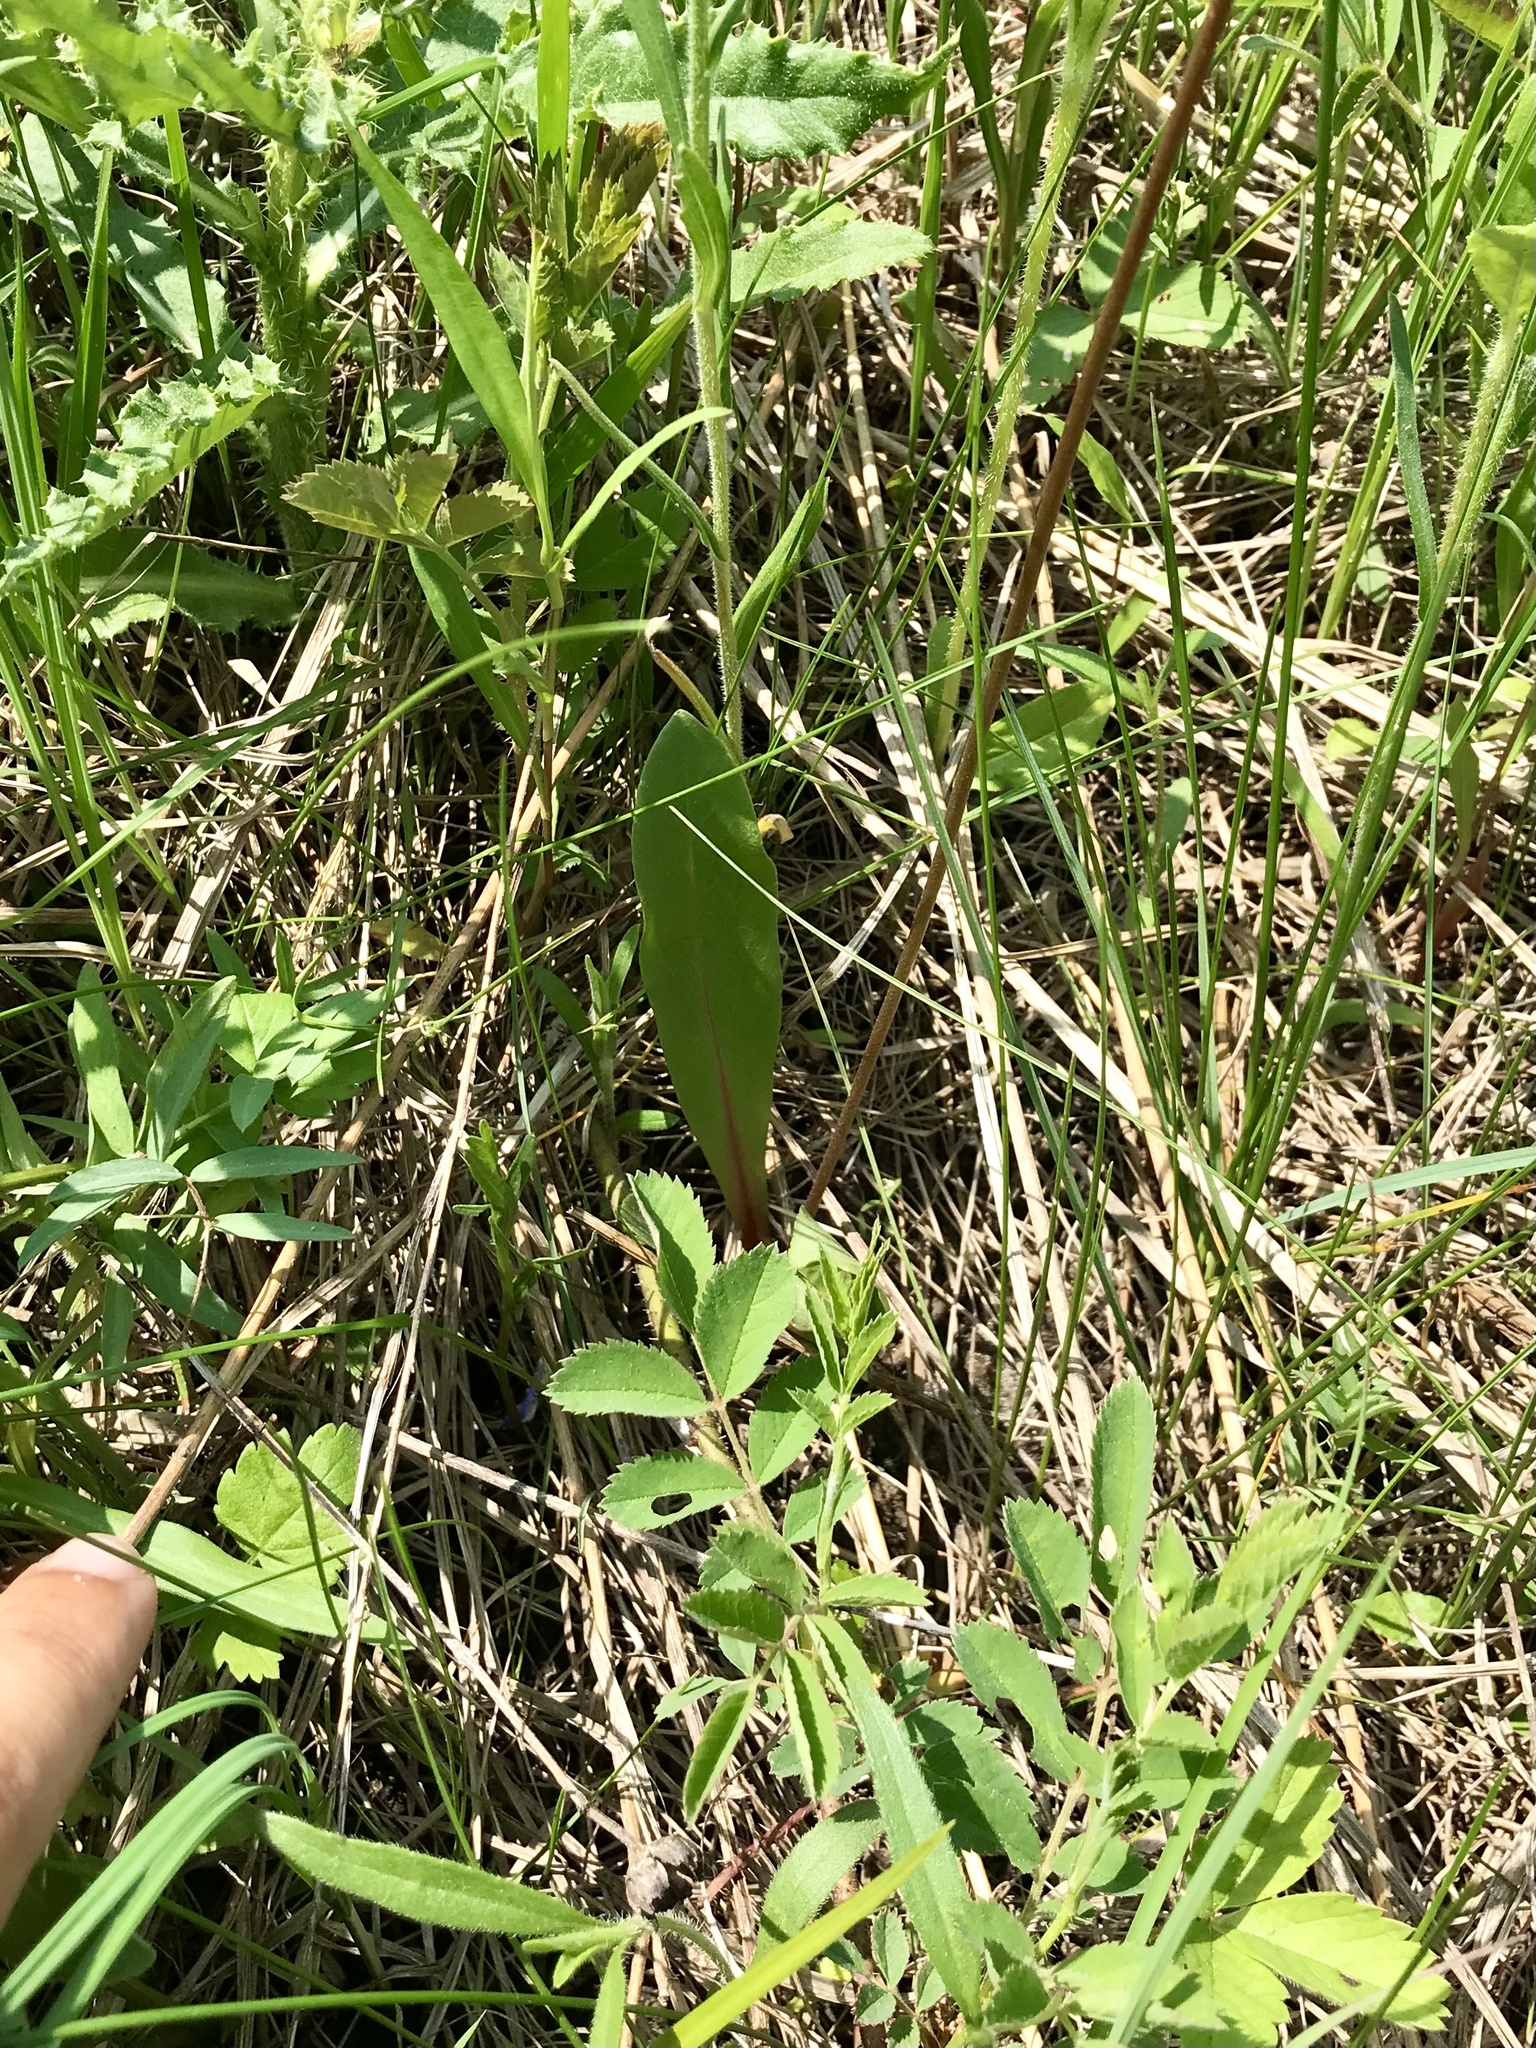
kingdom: Plantae
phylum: Tracheophyta
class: Magnoliopsida
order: Ericales
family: Primulaceae
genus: Dodecatheon
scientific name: Dodecatheon meadia
